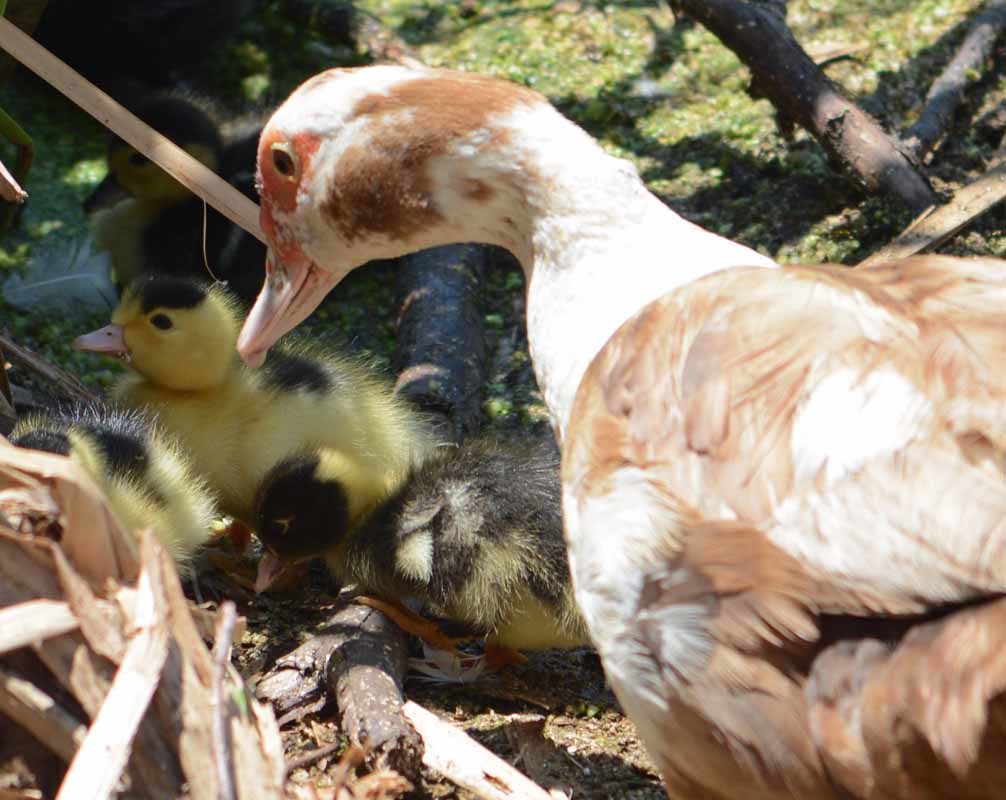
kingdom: Animalia
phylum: Chordata
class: Aves
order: Anseriformes
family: Anatidae
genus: Cairina
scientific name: Cairina moschata
